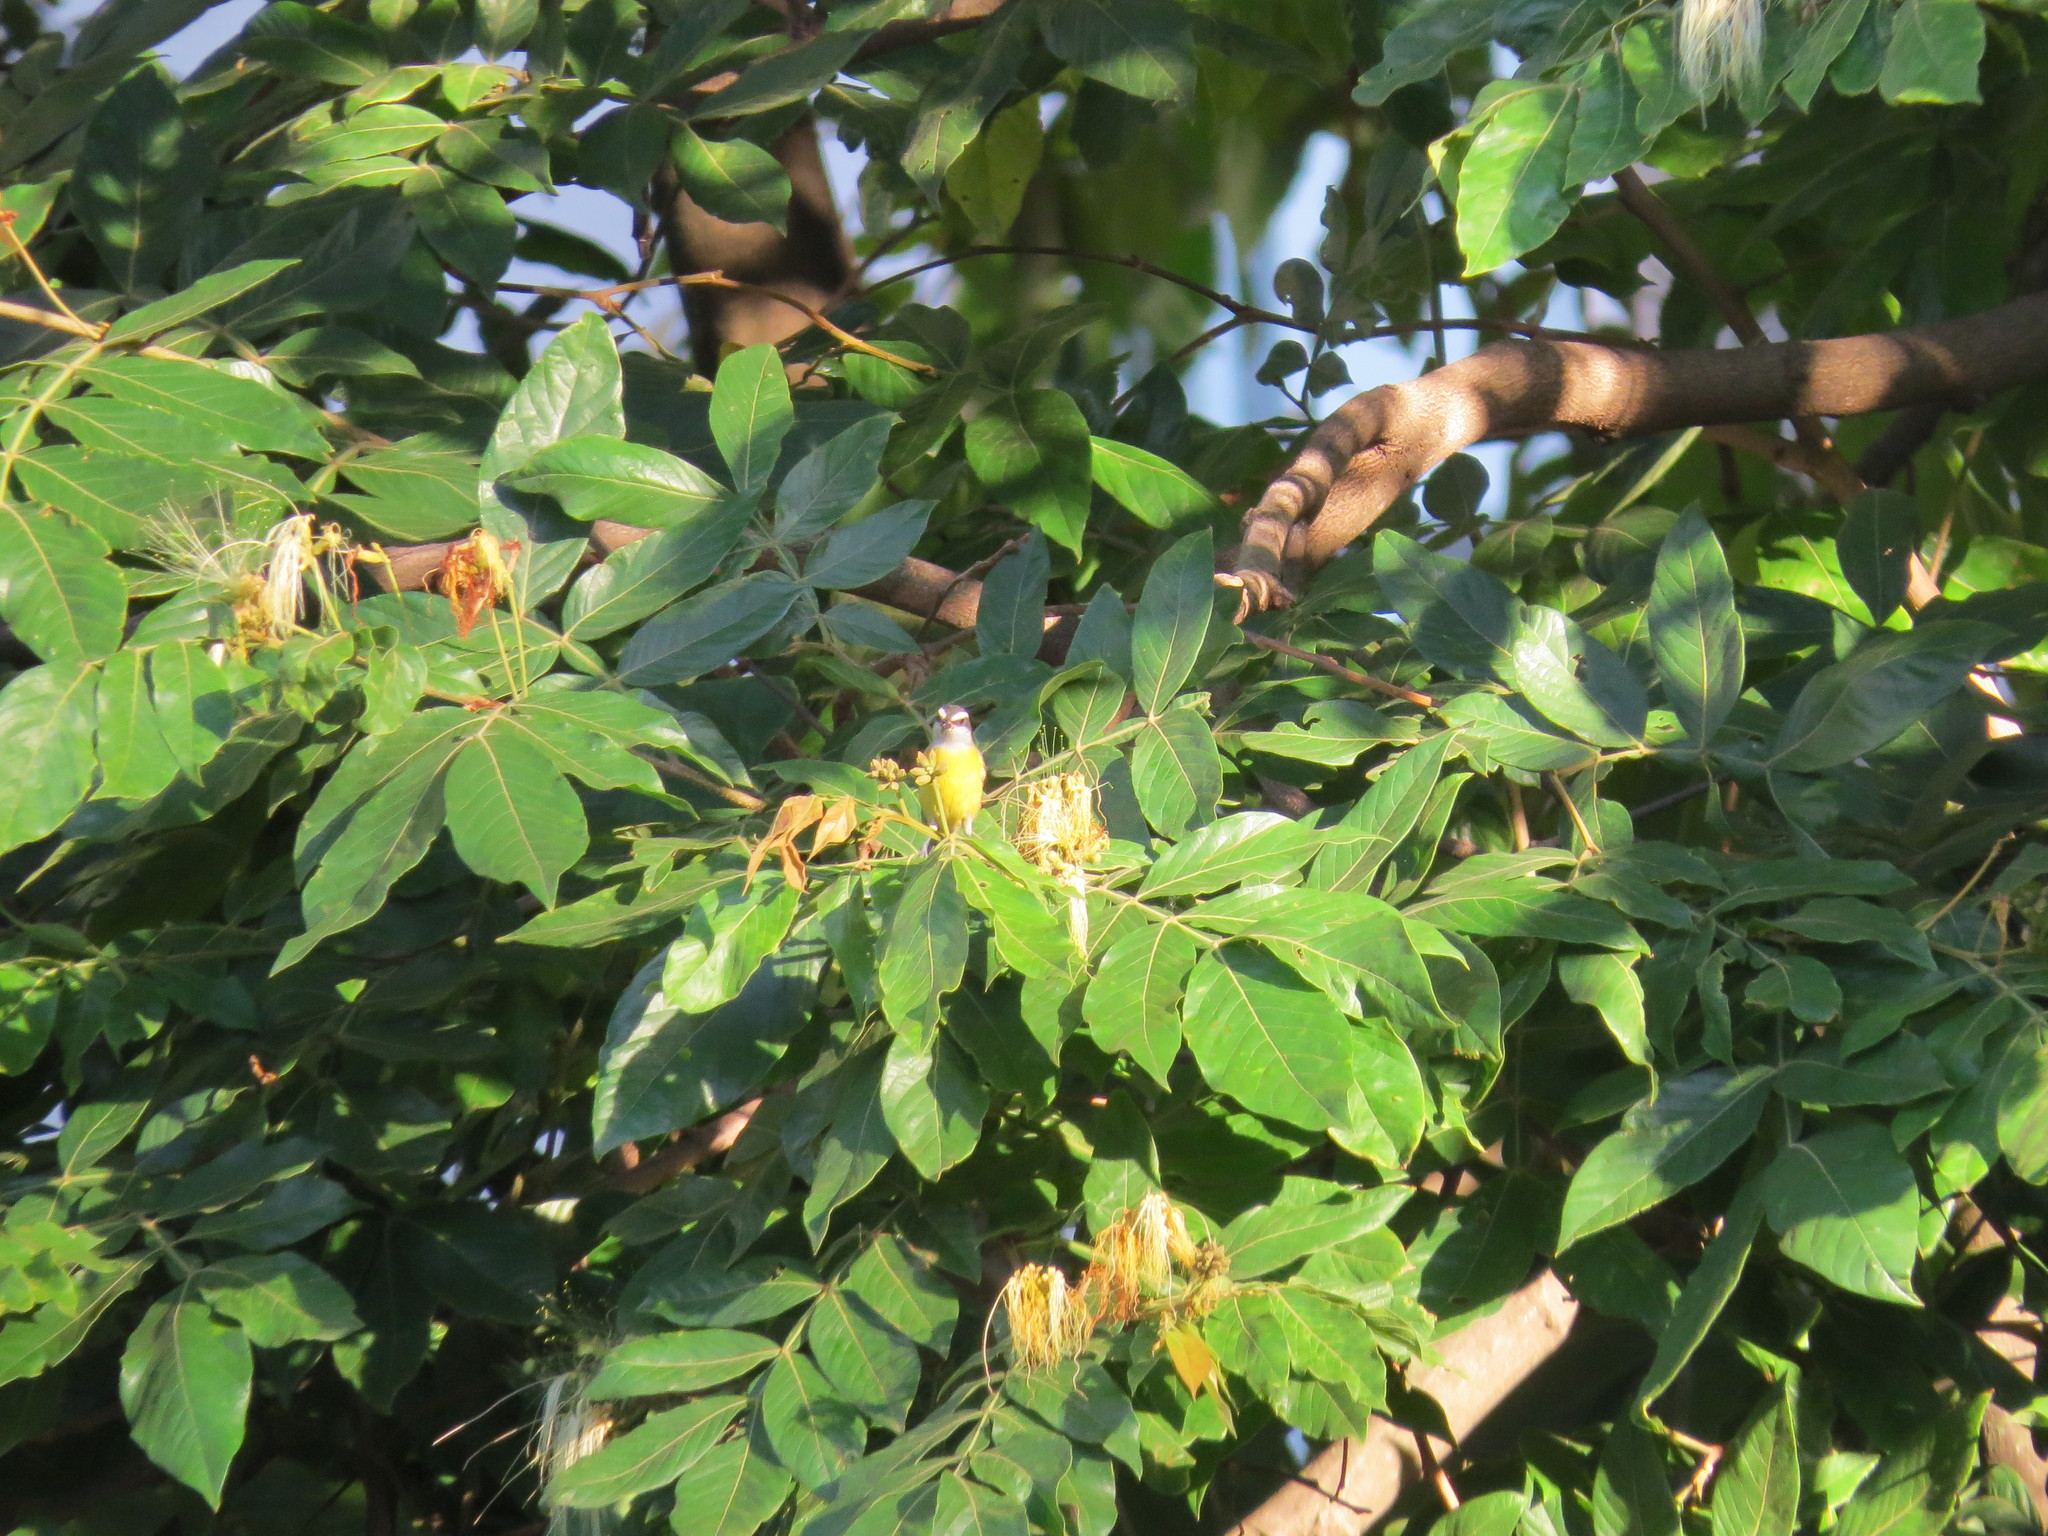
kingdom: Animalia
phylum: Chordata
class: Aves
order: Passeriformes
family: Thraupidae
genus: Coereba
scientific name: Coereba flaveola
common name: Bananaquit
